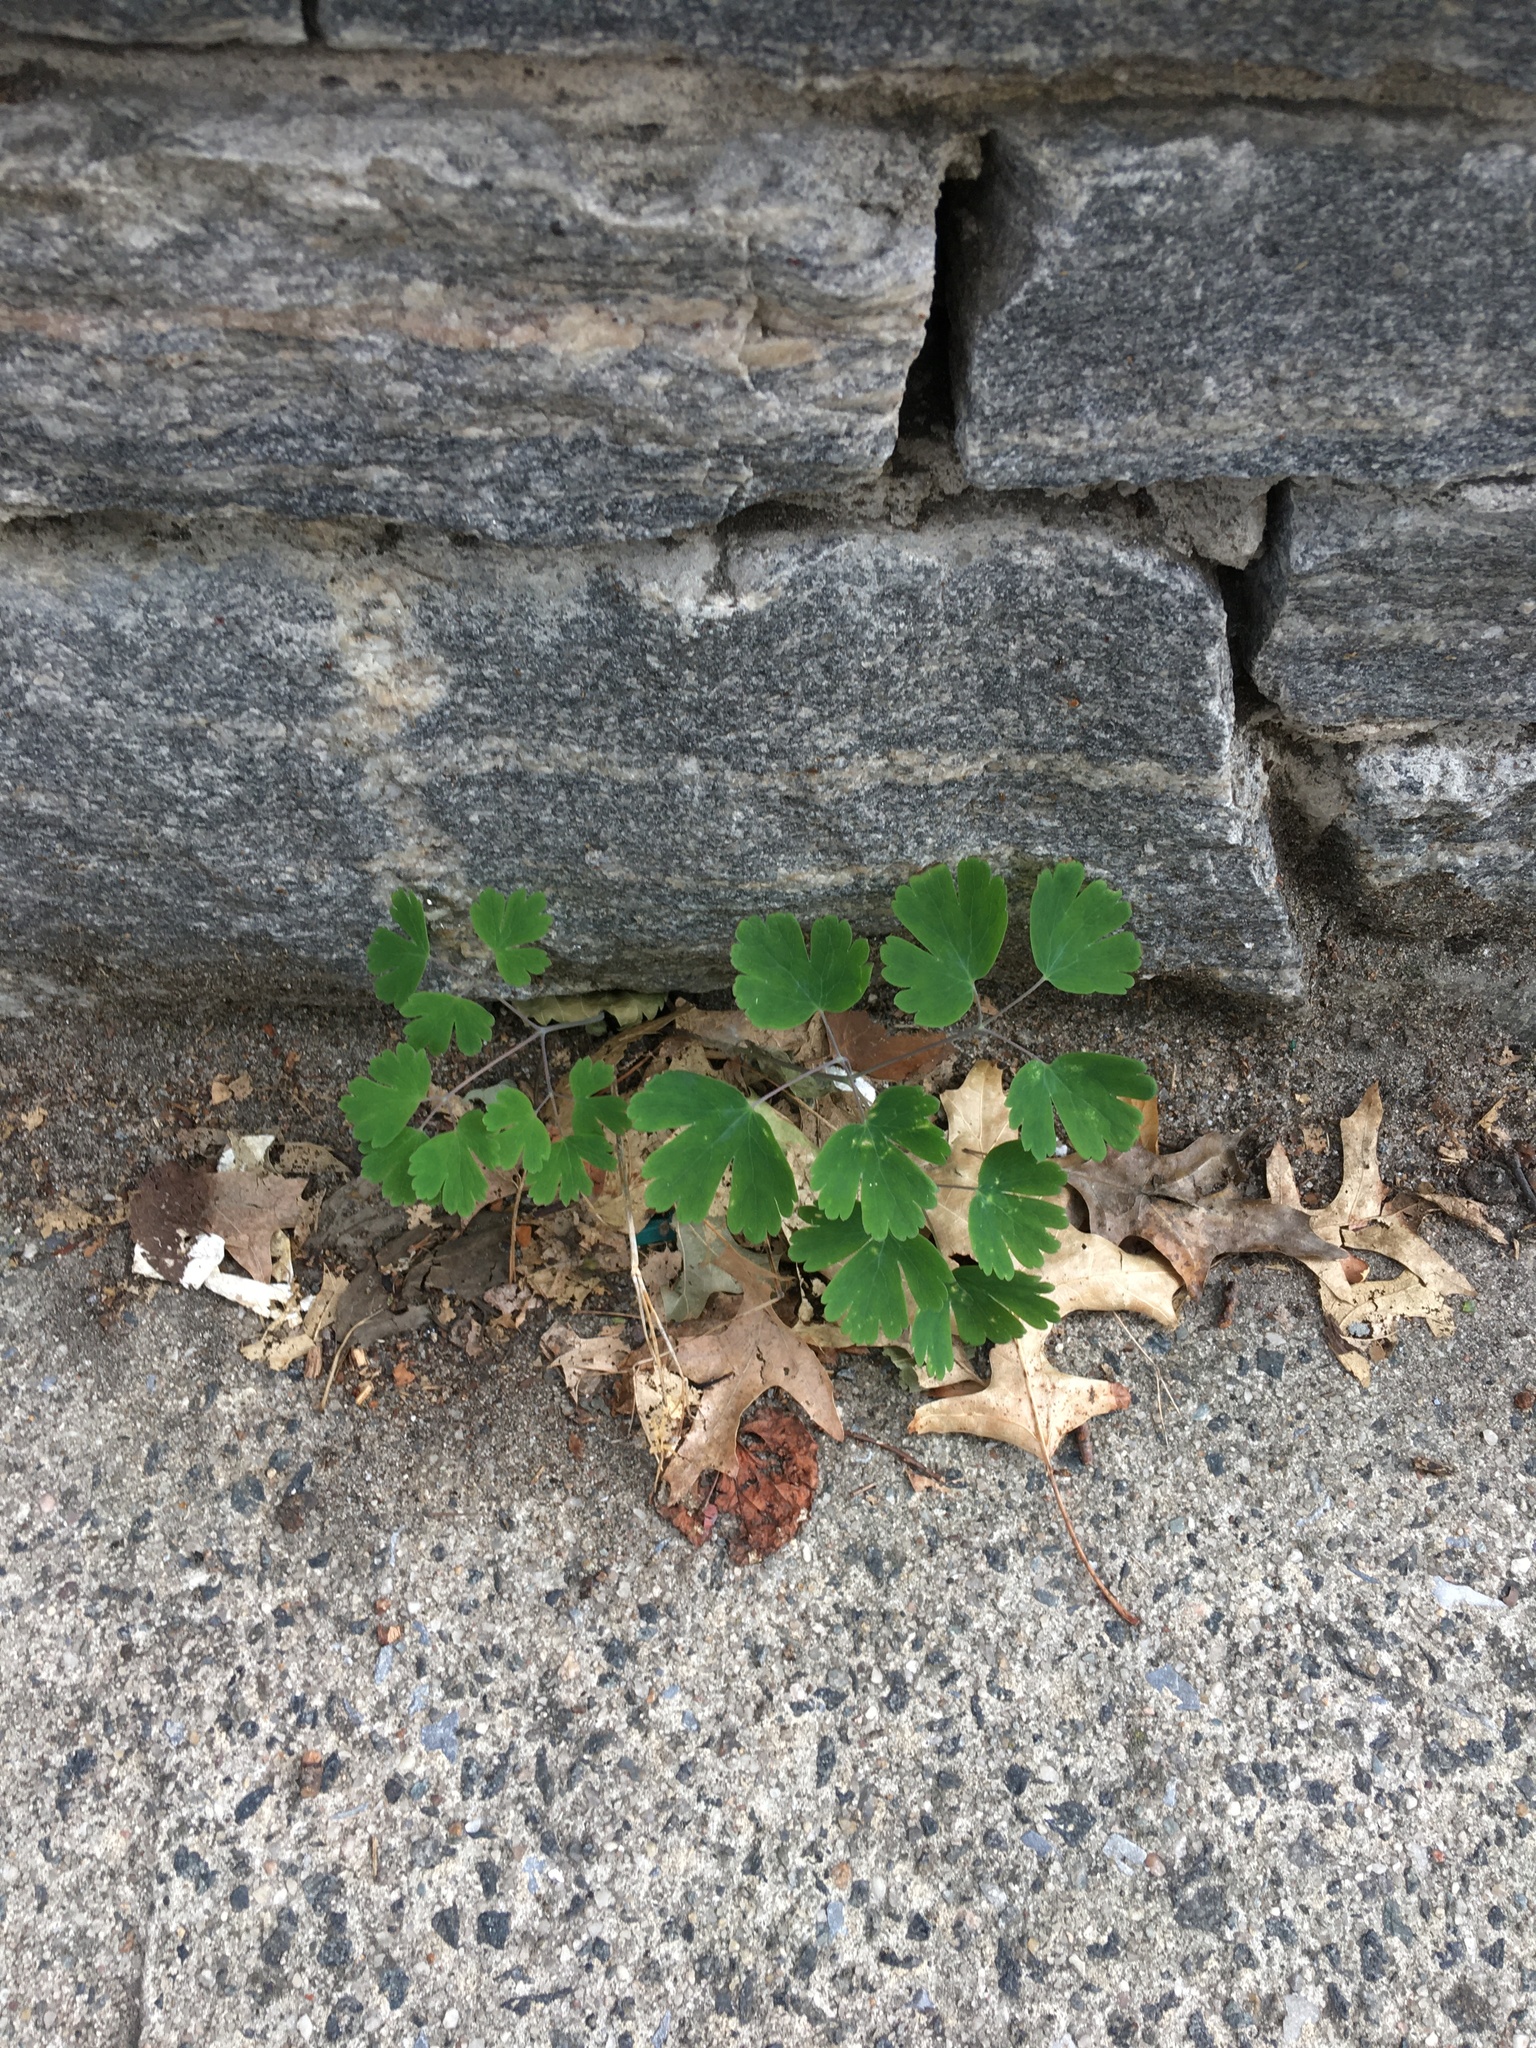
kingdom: Plantae
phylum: Tracheophyta
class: Magnoliopsida
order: Ranunculales
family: Ranunculaceae
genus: Aquilegia
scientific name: Aquilegia canadensis
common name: American columbine
